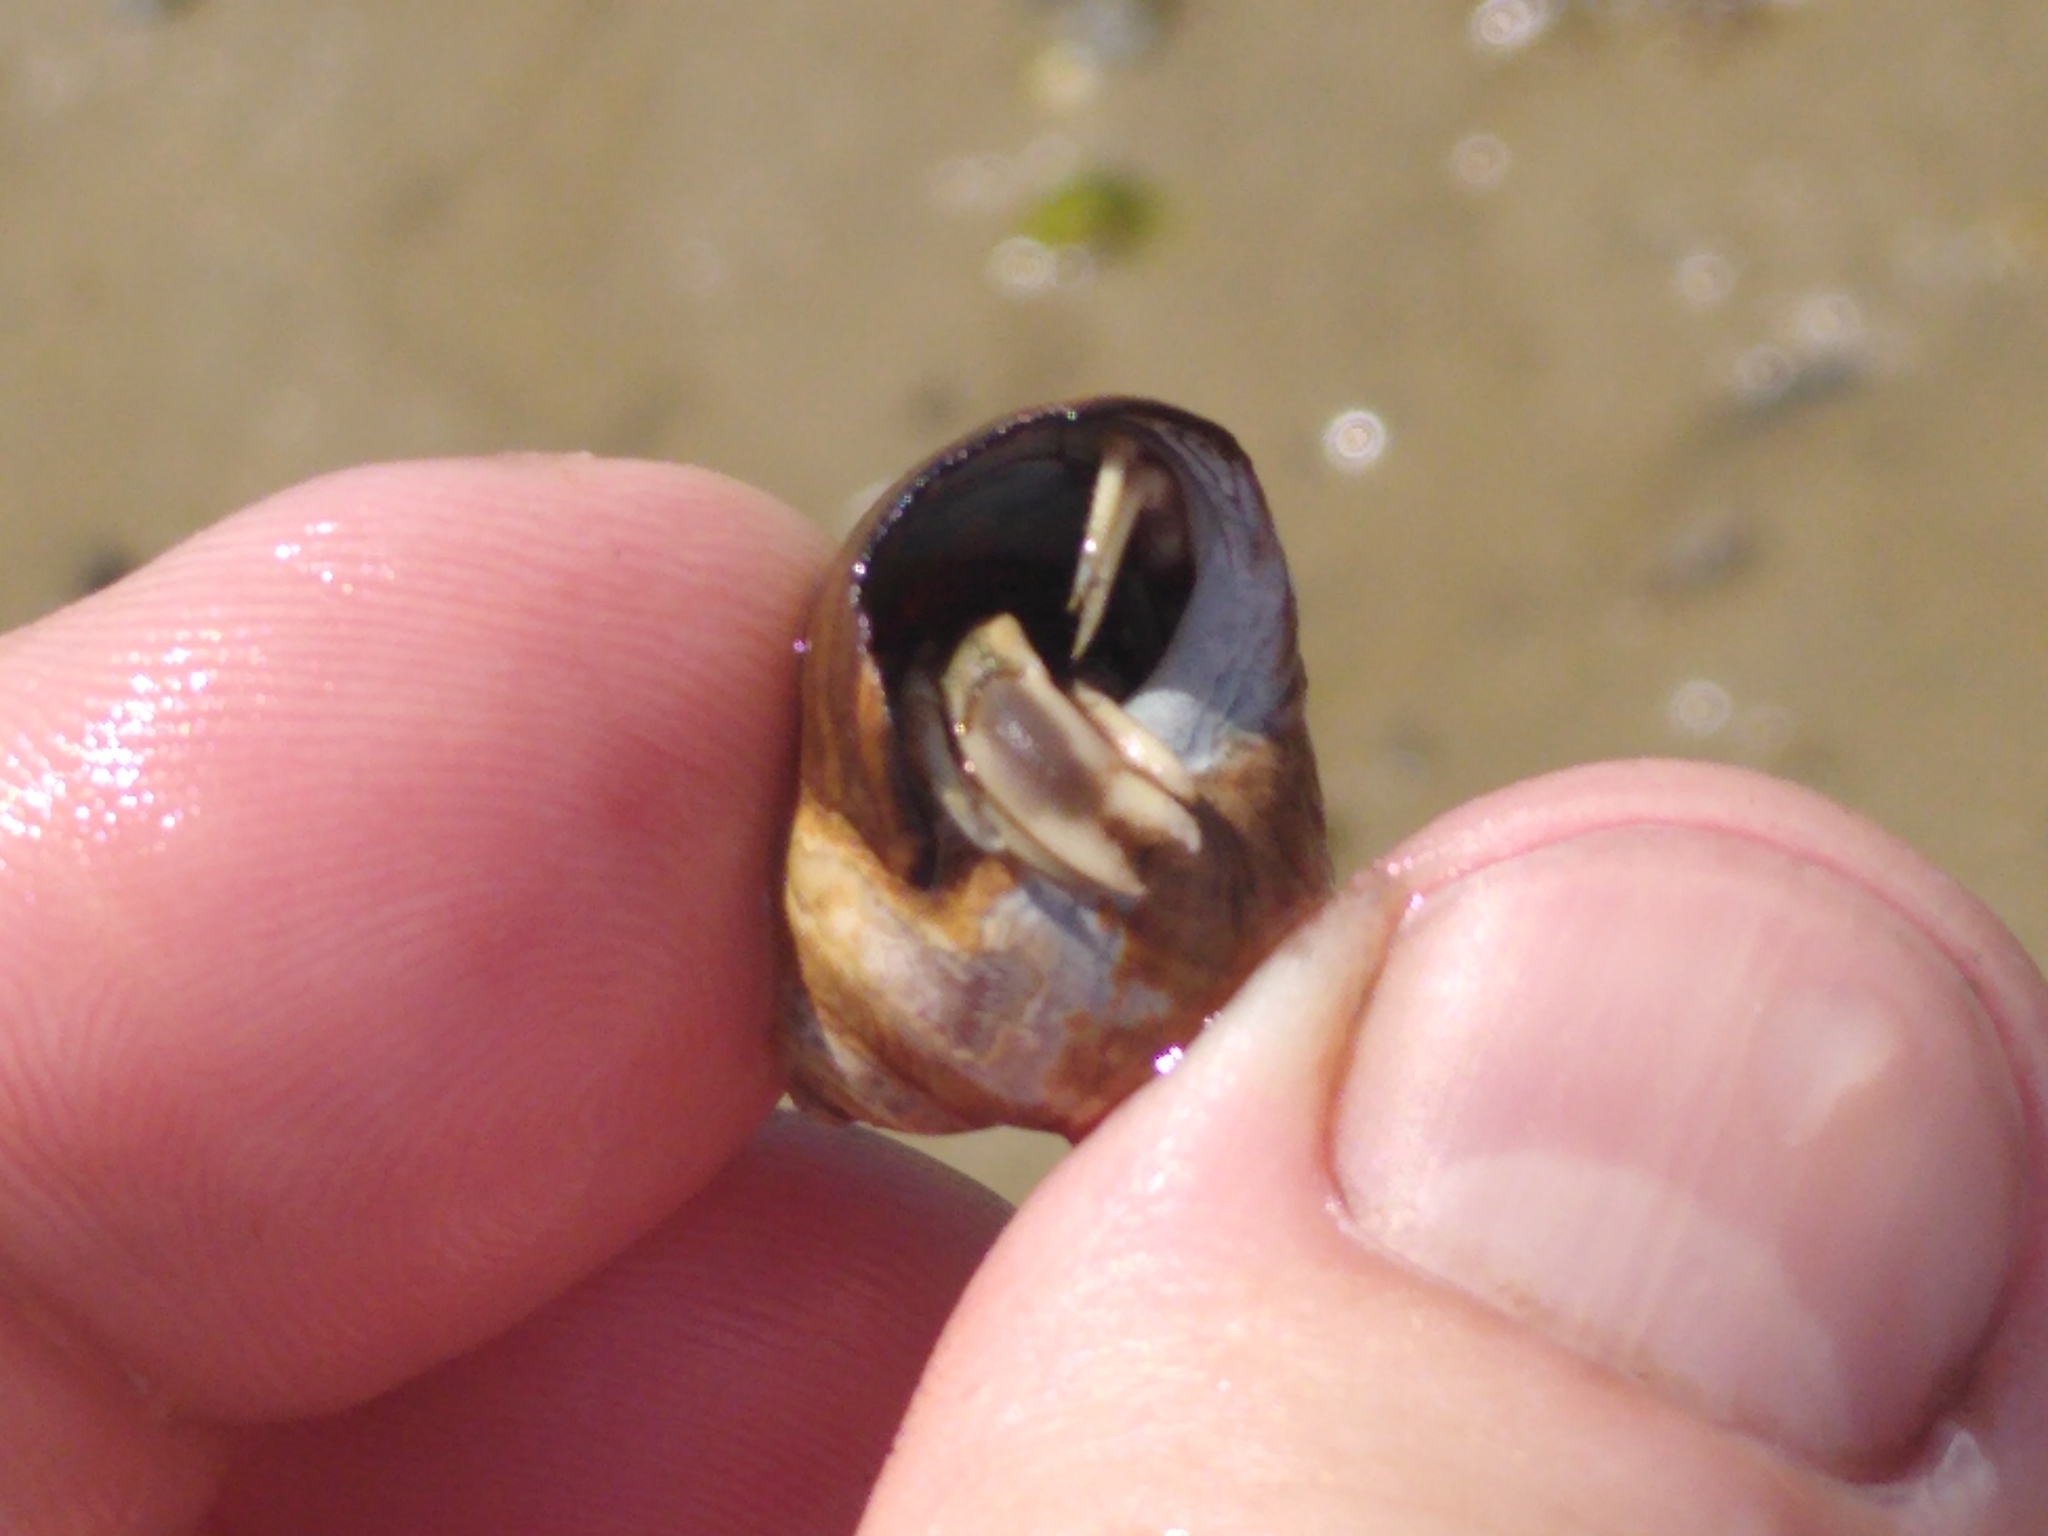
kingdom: Animalia
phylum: Arthropoda
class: Malacostraca
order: Decapoda
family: Paguridae
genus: Pagurus
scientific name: Pagurus longicarpus
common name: Long-armed hermit crab
